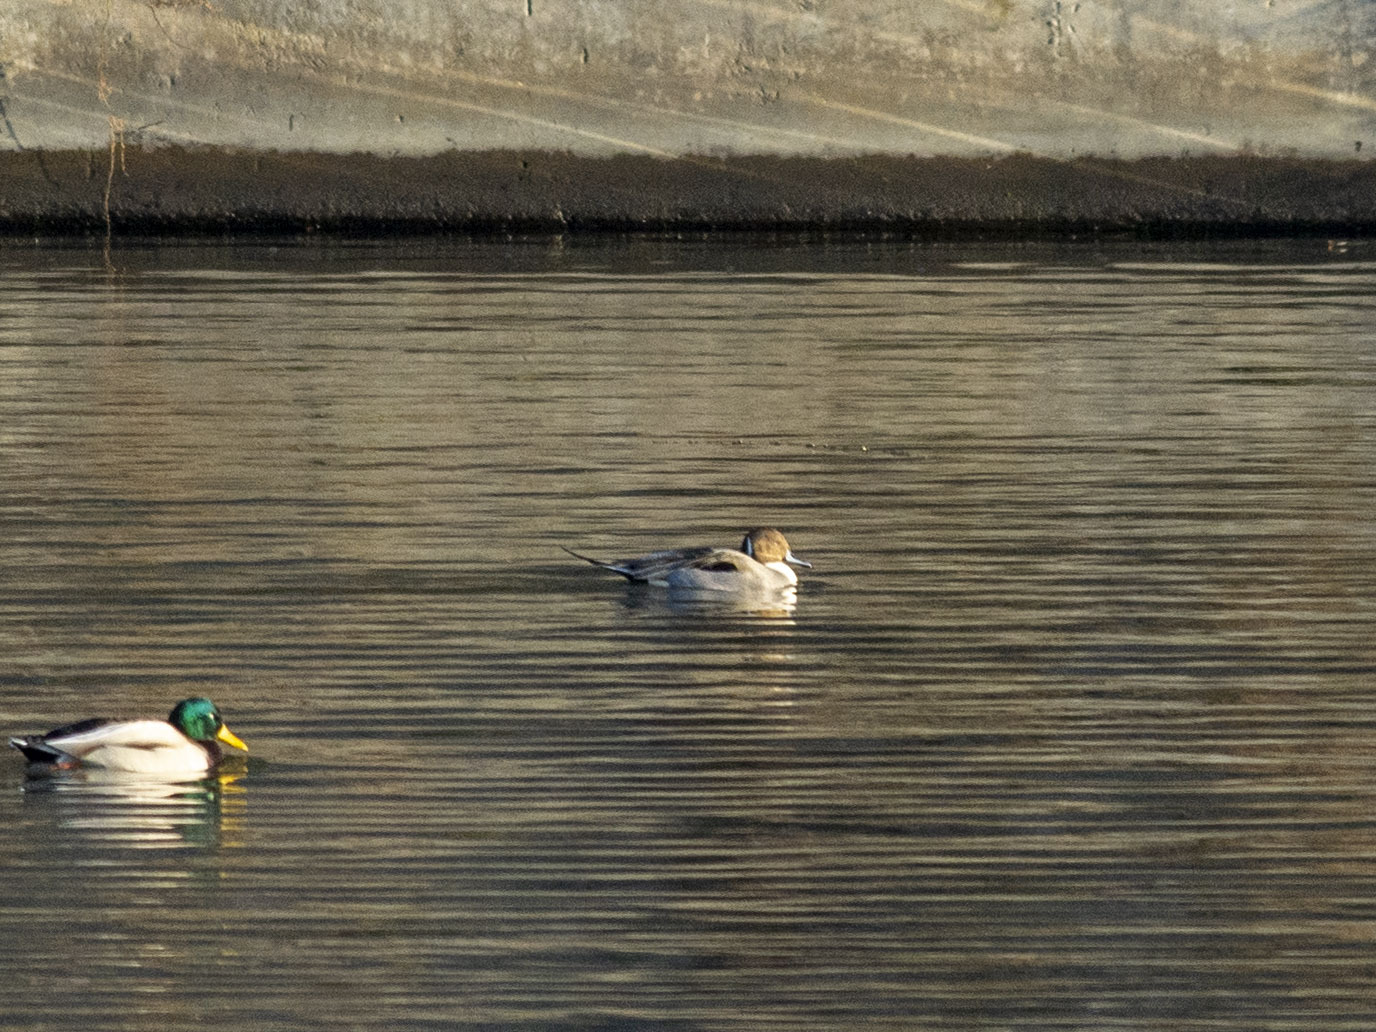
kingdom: Animalia
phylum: Chordata
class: Aves
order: Anseriformes
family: Anatidae
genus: Anas
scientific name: Anas acuta
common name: Northern pintail
